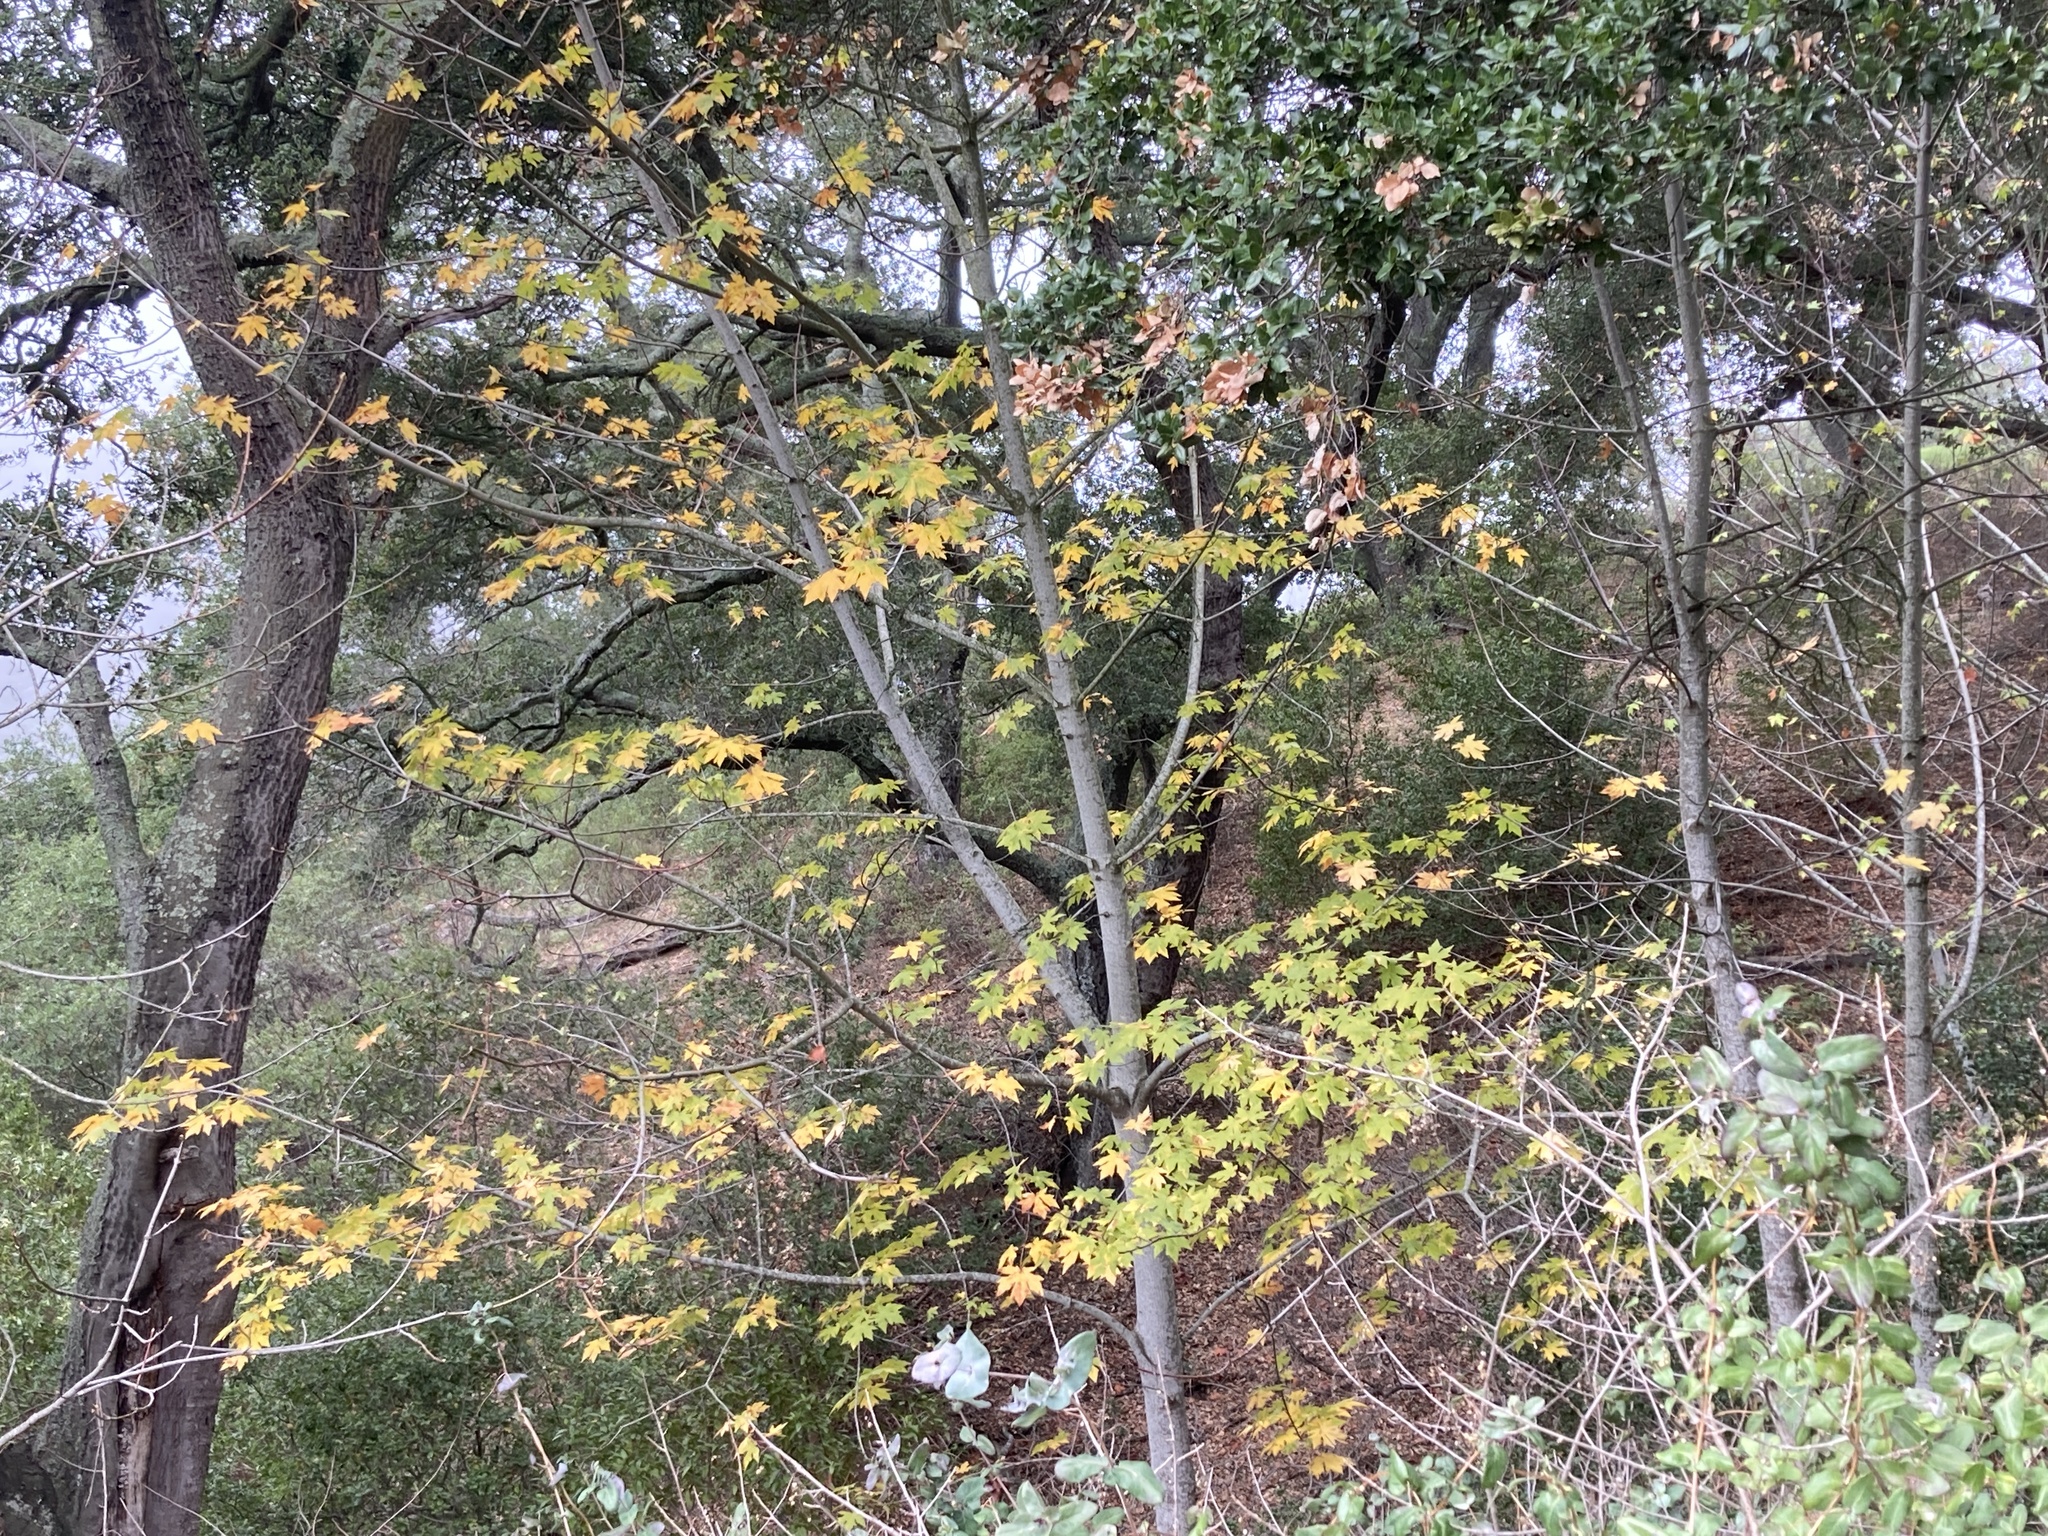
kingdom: Plantae
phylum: Tracheophyta
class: Magnoliopsida
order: Sapindales
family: Sapindaceae
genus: Acer
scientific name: Acer macrophyllum
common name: Oregon maple
